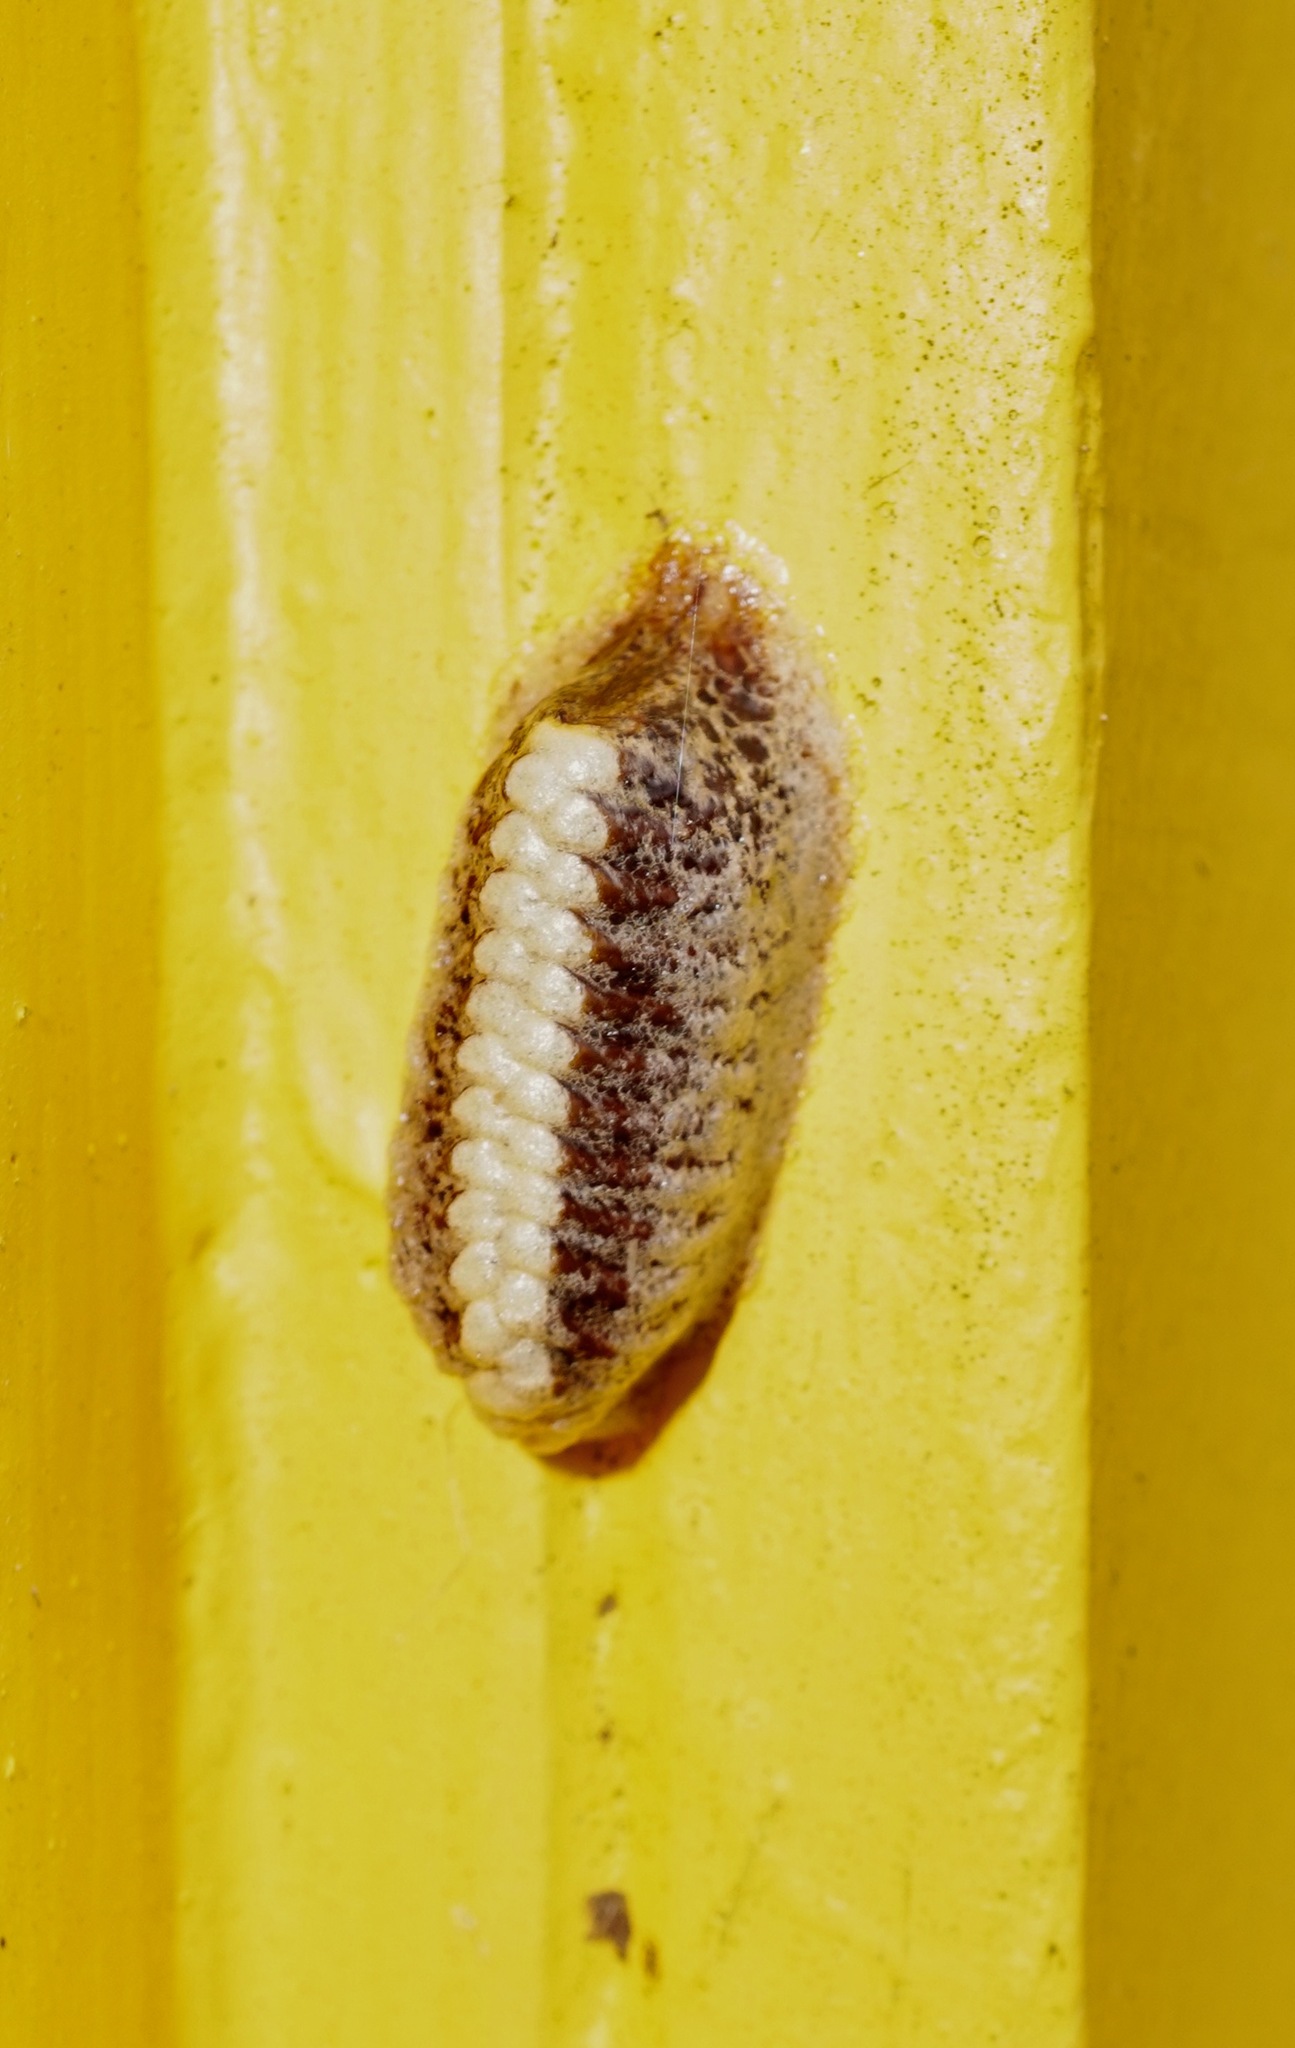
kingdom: Animalia
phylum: Arthropoda
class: Insecta
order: Mantodea
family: Mantidae
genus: Orthodera
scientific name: Orthodera novaezealandiae
